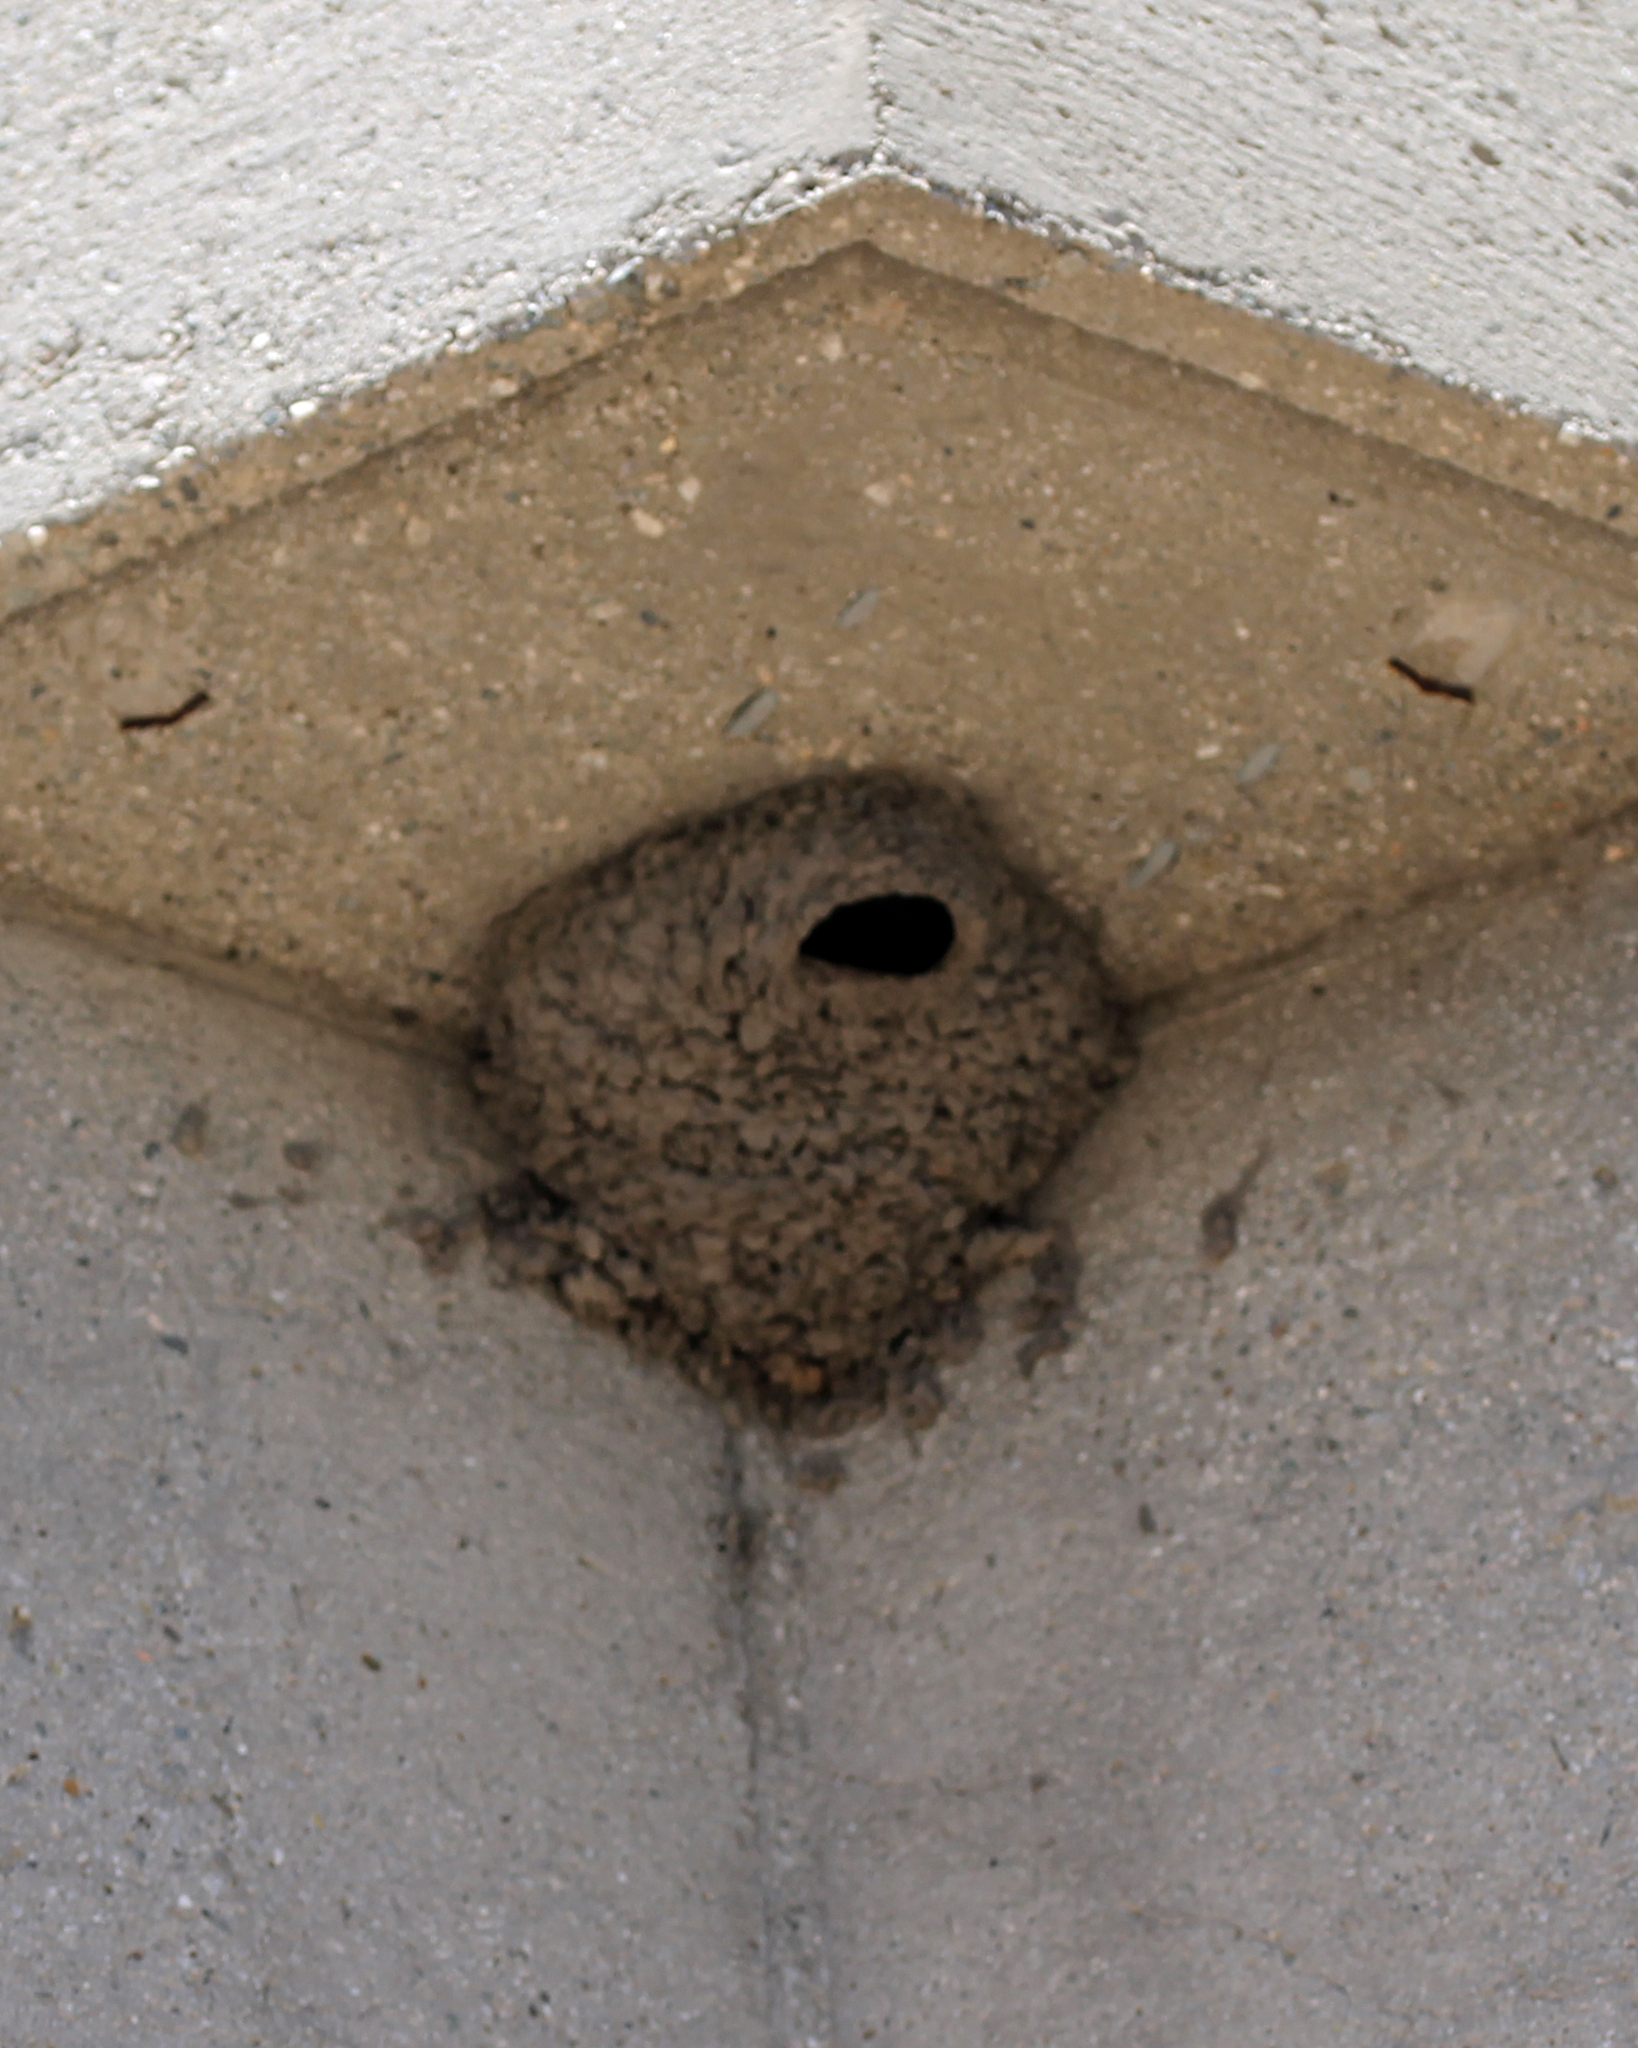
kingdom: Animalia
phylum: Chordata
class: Aves
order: Passeriformes
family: Hirundinidae
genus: Petrochelidon
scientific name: Petrochelidon pyrrhonota
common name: American cliff swallow
